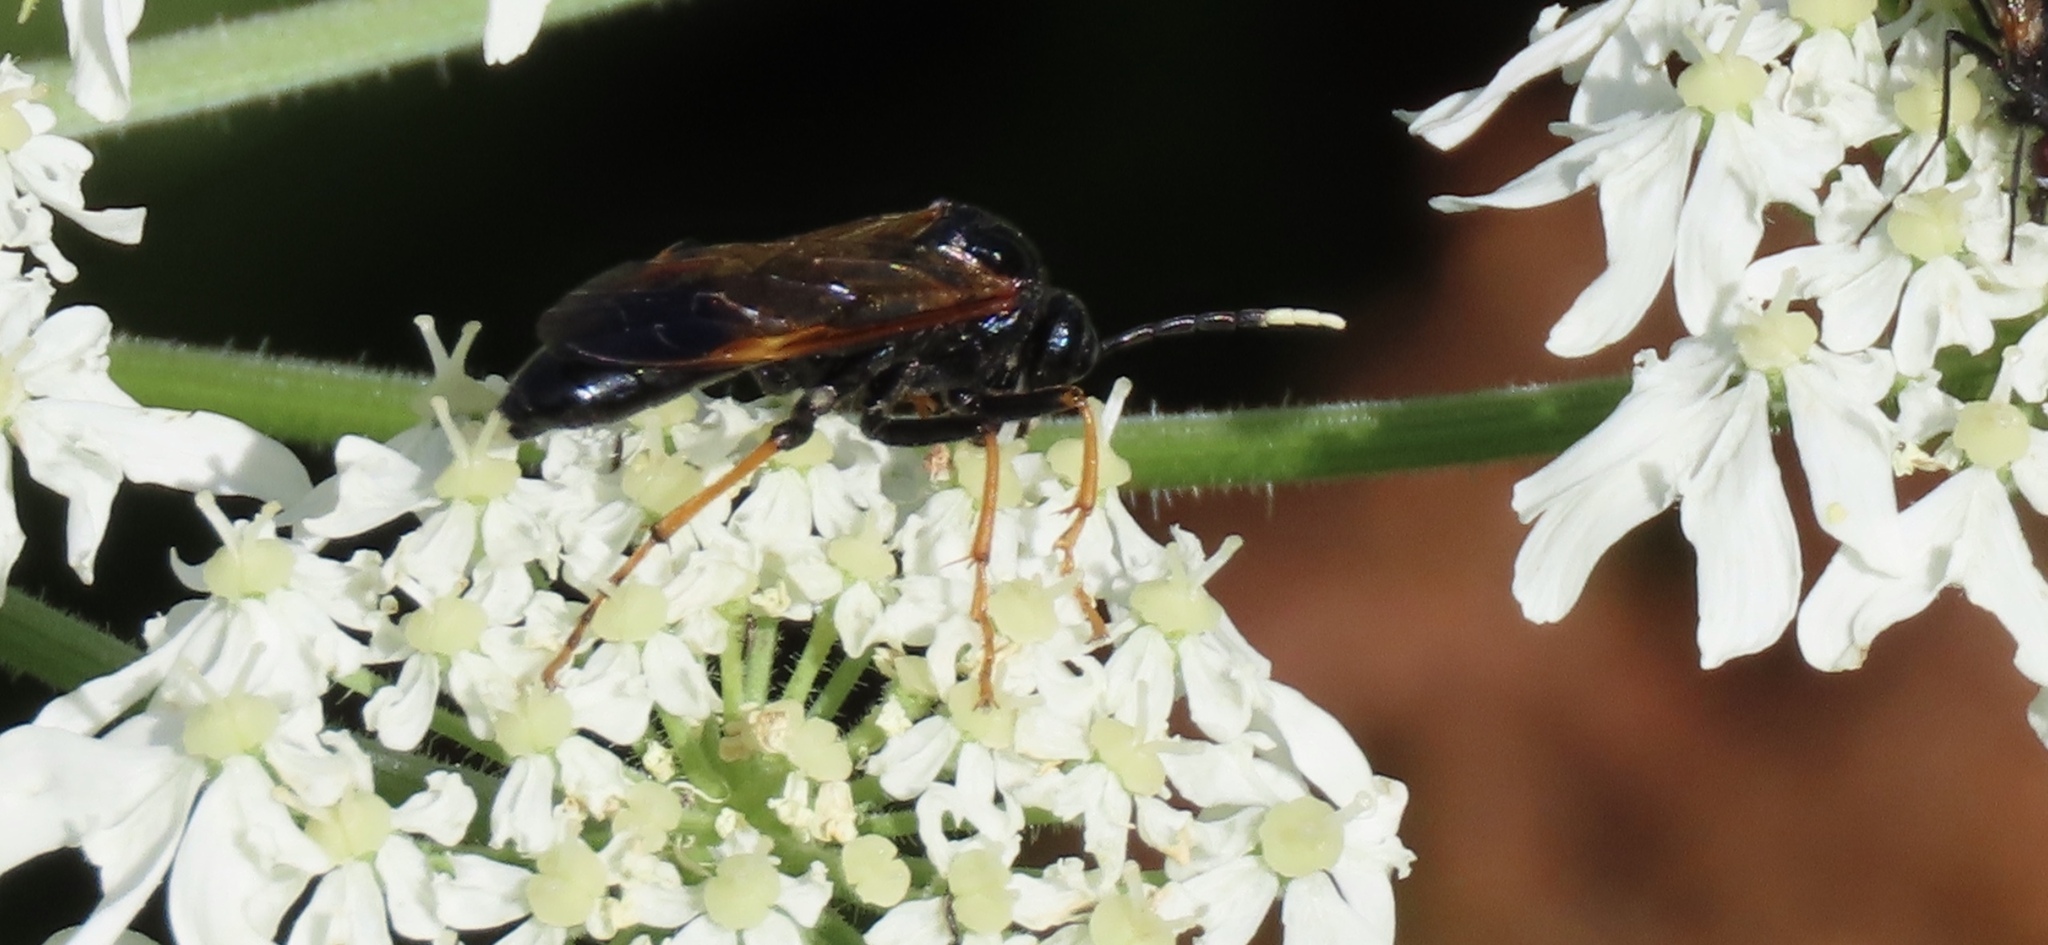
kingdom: Animalia
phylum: Arthropoda
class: Insecta
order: Hymenoptera
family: Tenthredinidae
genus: Tenthredo
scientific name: Tenthredo crassa
